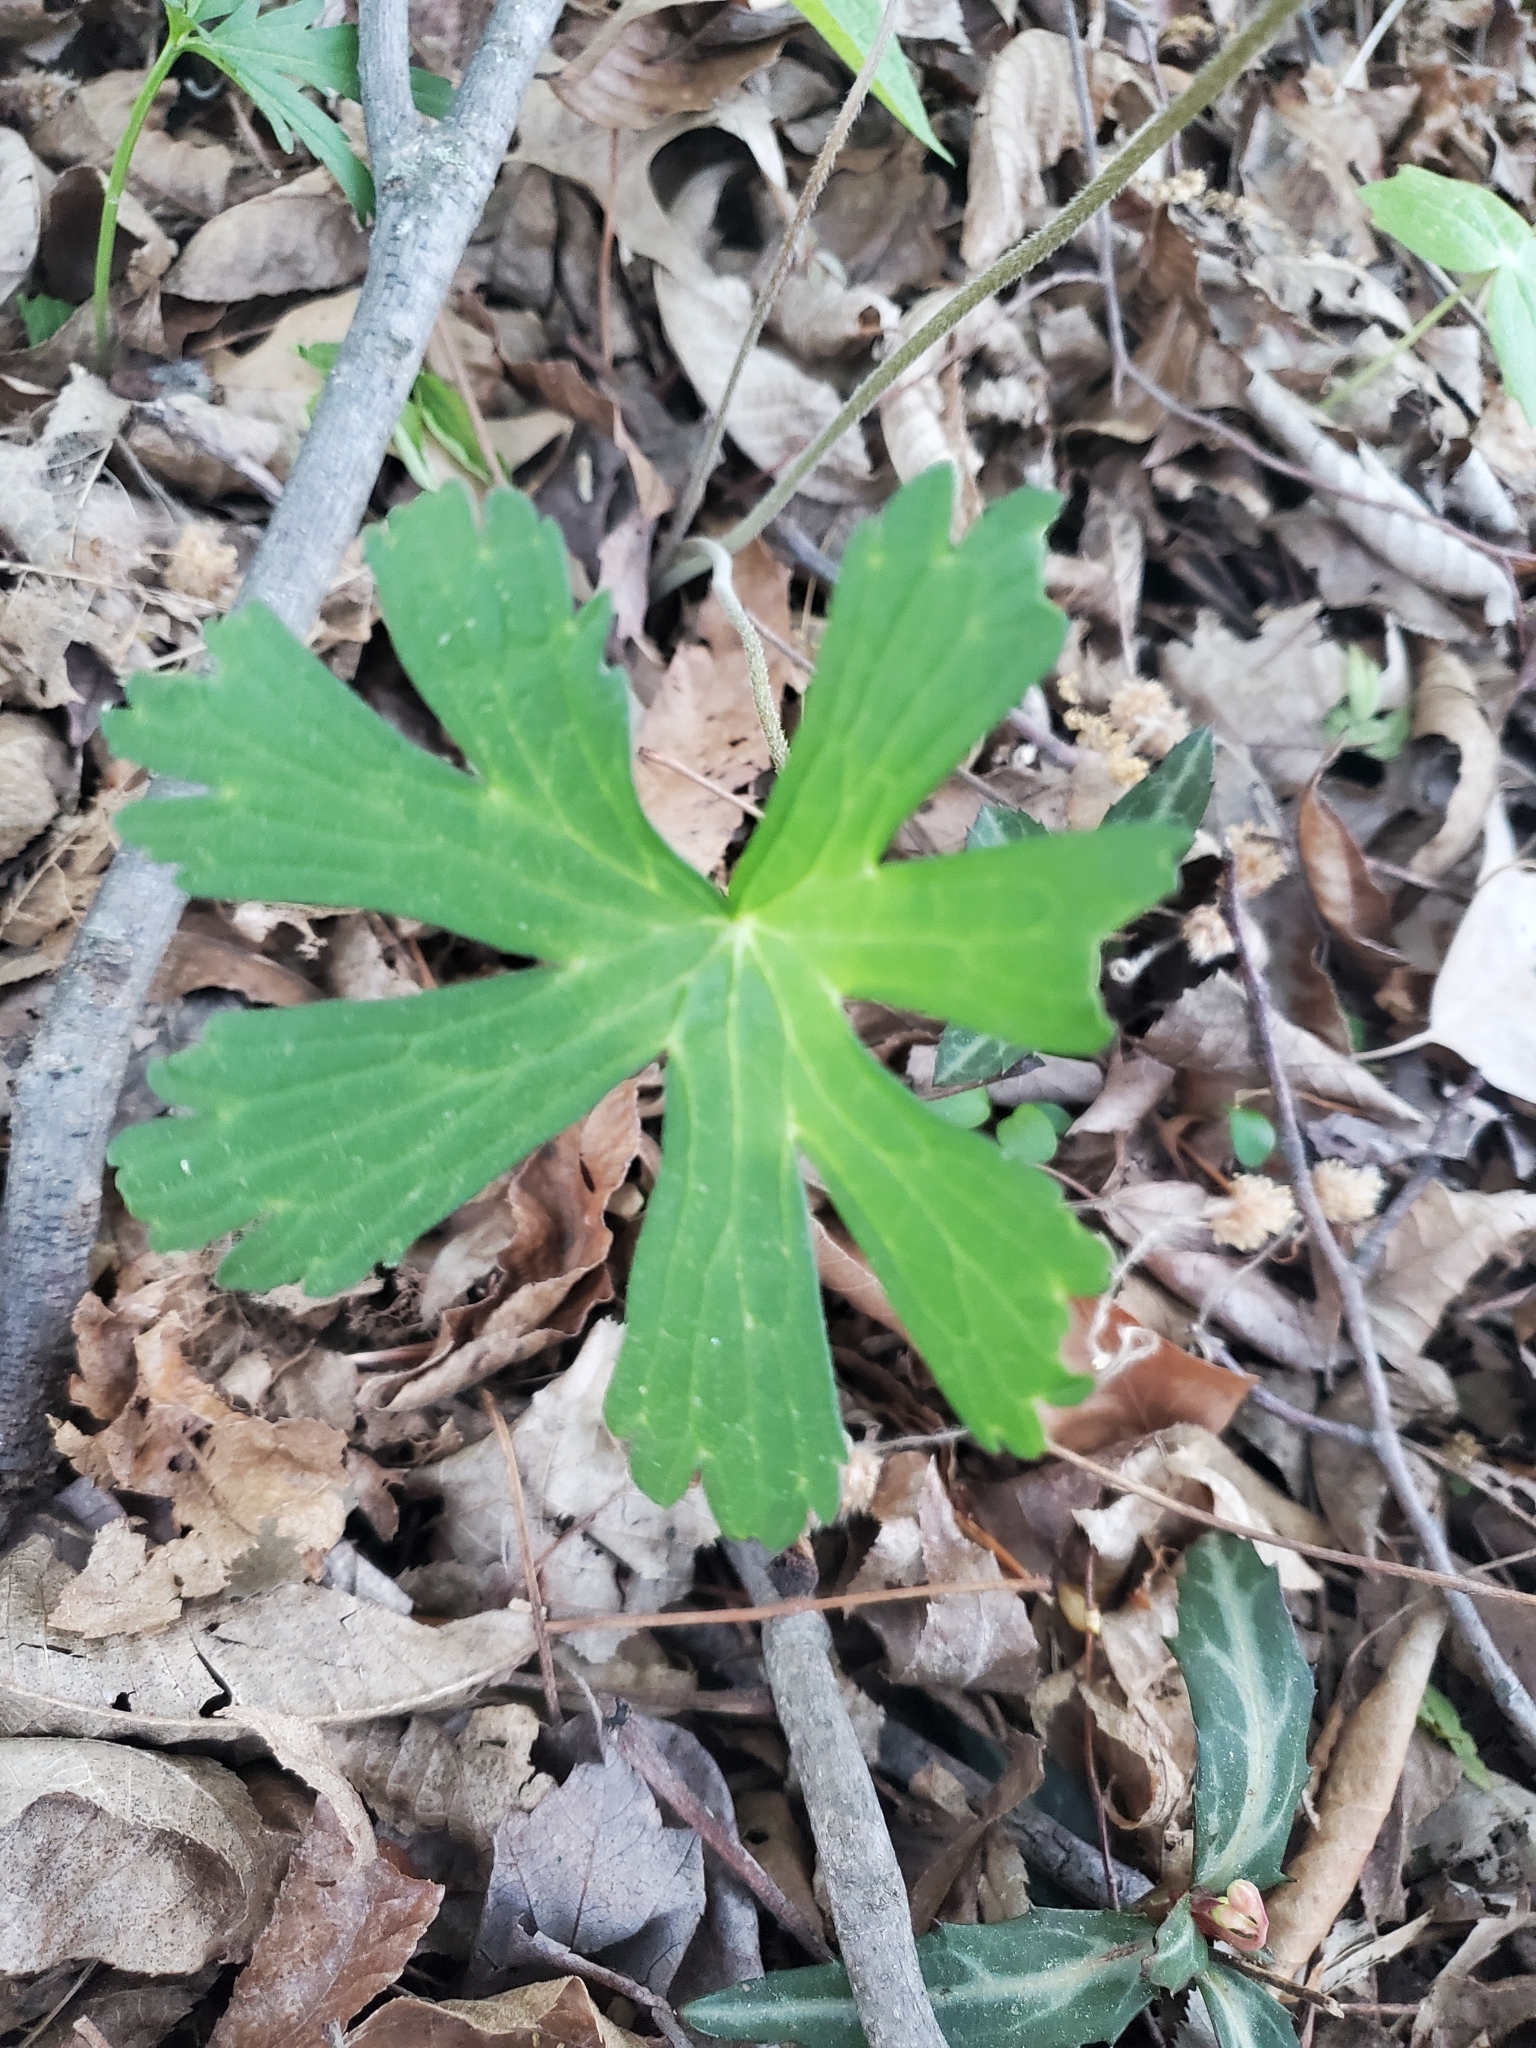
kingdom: Plantae
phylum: Tracheophyta
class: Magnoliopsida
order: Geraniales
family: Geraniaceae
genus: Geranium
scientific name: Geranium maculatum
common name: Spotted geranium
